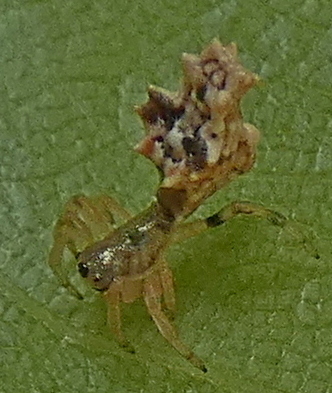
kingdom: Animalia
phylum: Arthropoda
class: Arachnida
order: Araneae
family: Araneidae
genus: Micrathena
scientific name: Micrathena horrida
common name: Orb weavers
